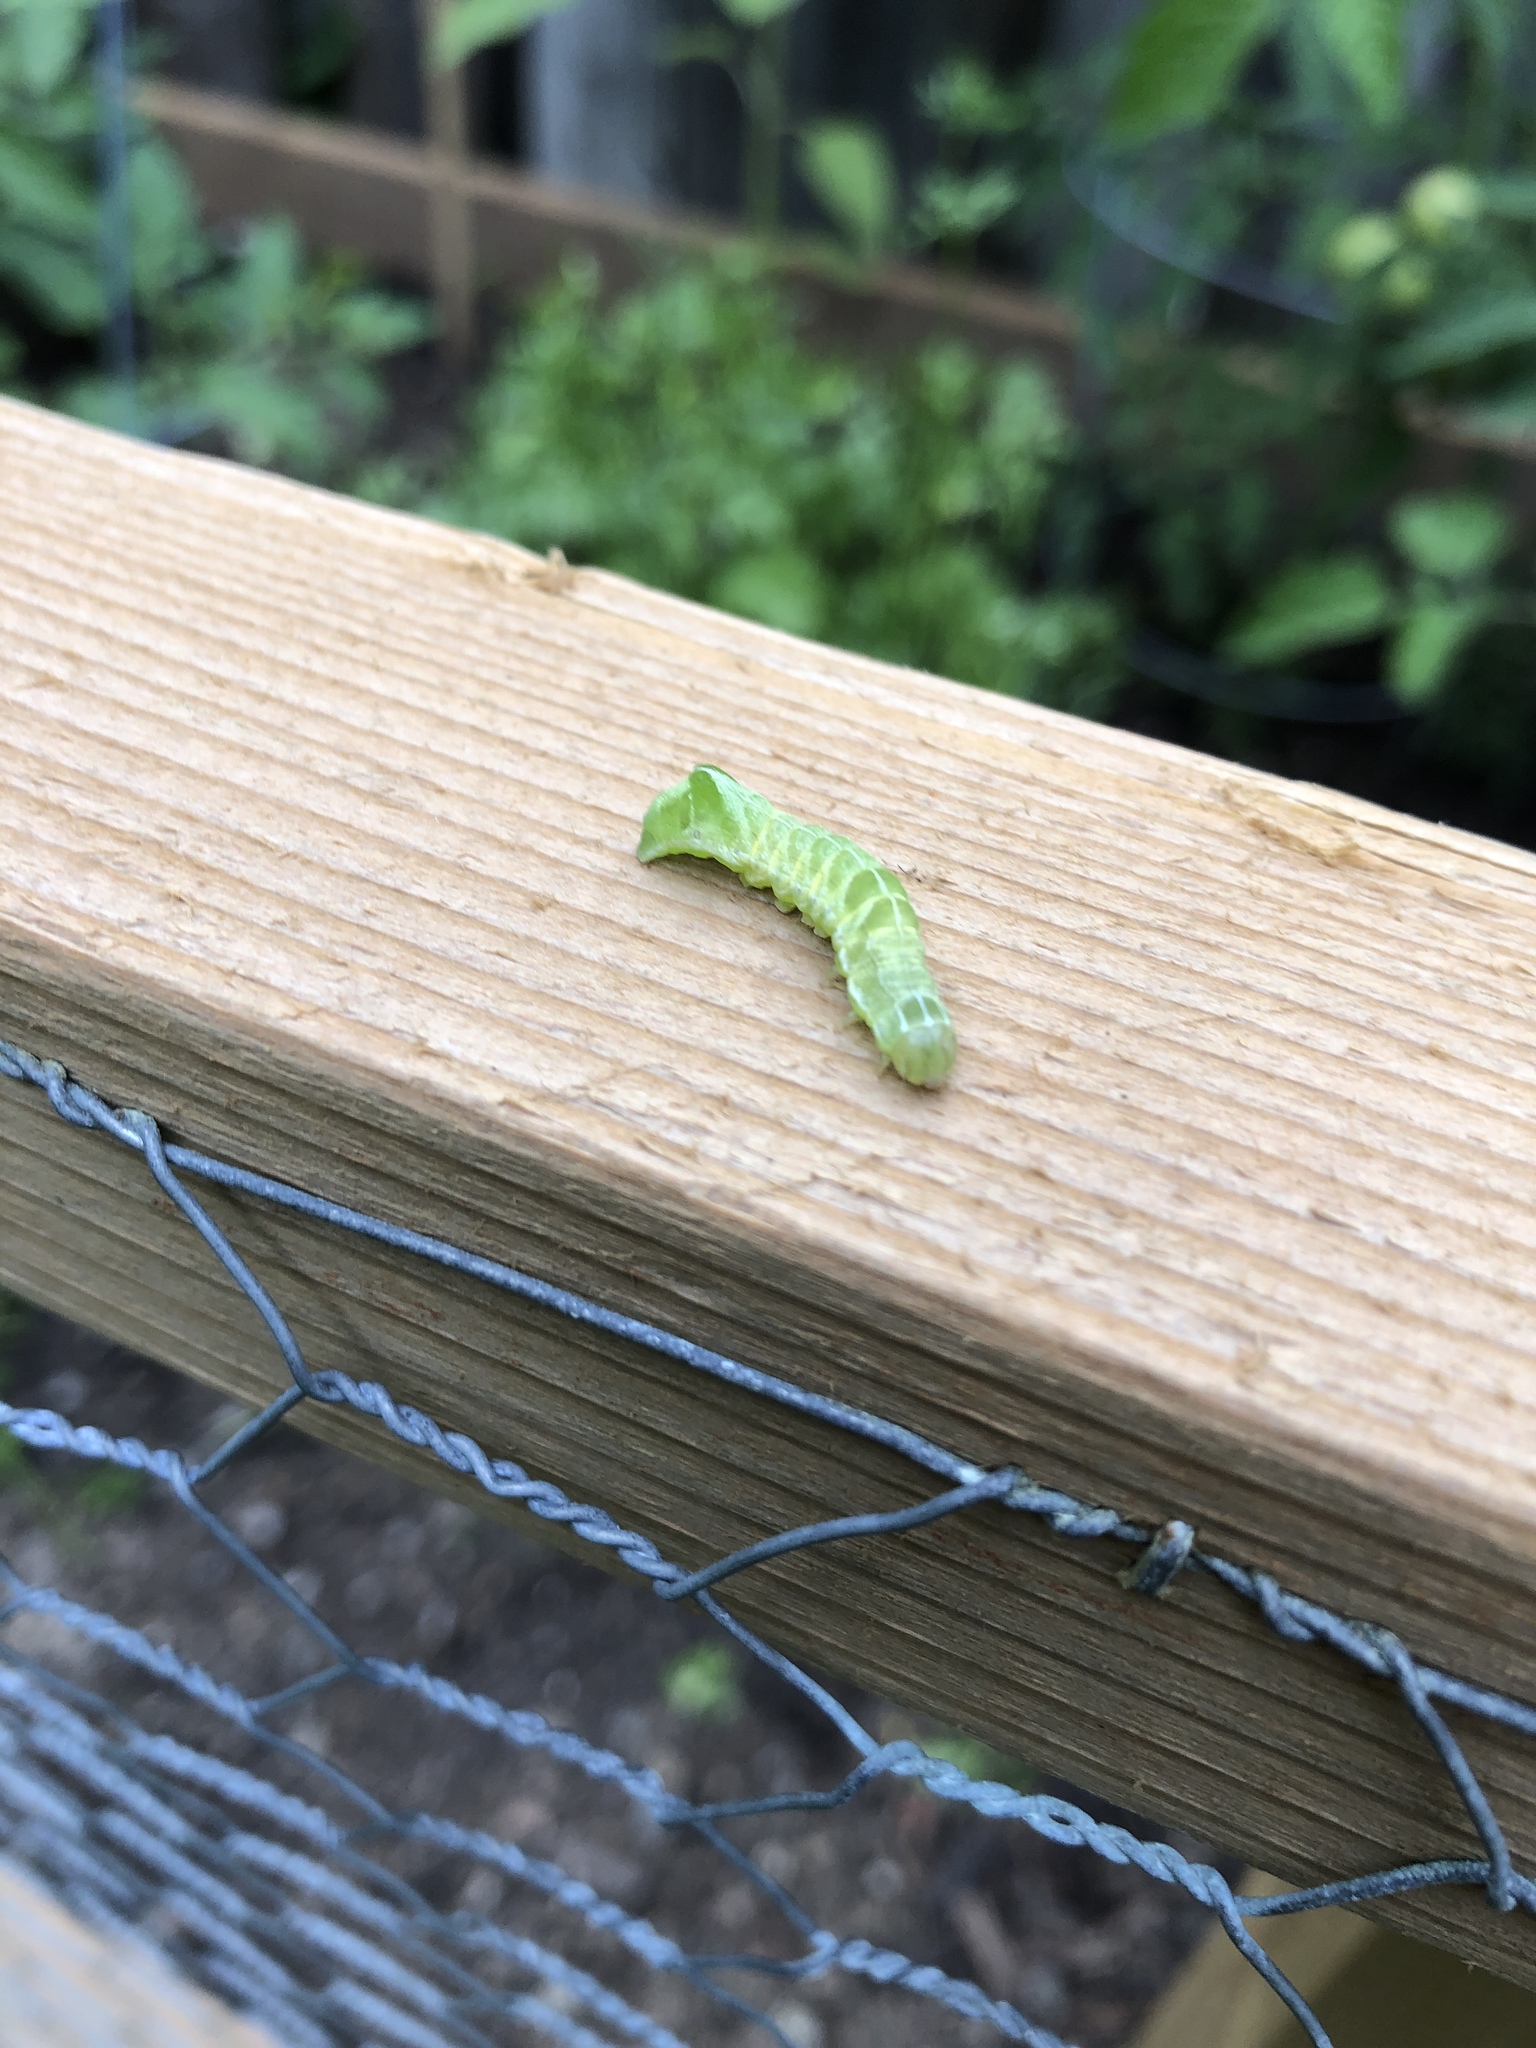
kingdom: Animalia
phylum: Arthropoda
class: Insecta
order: Lepidoptera
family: Noctuidae
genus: Melanchra
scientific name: Melanchra adjuncta
